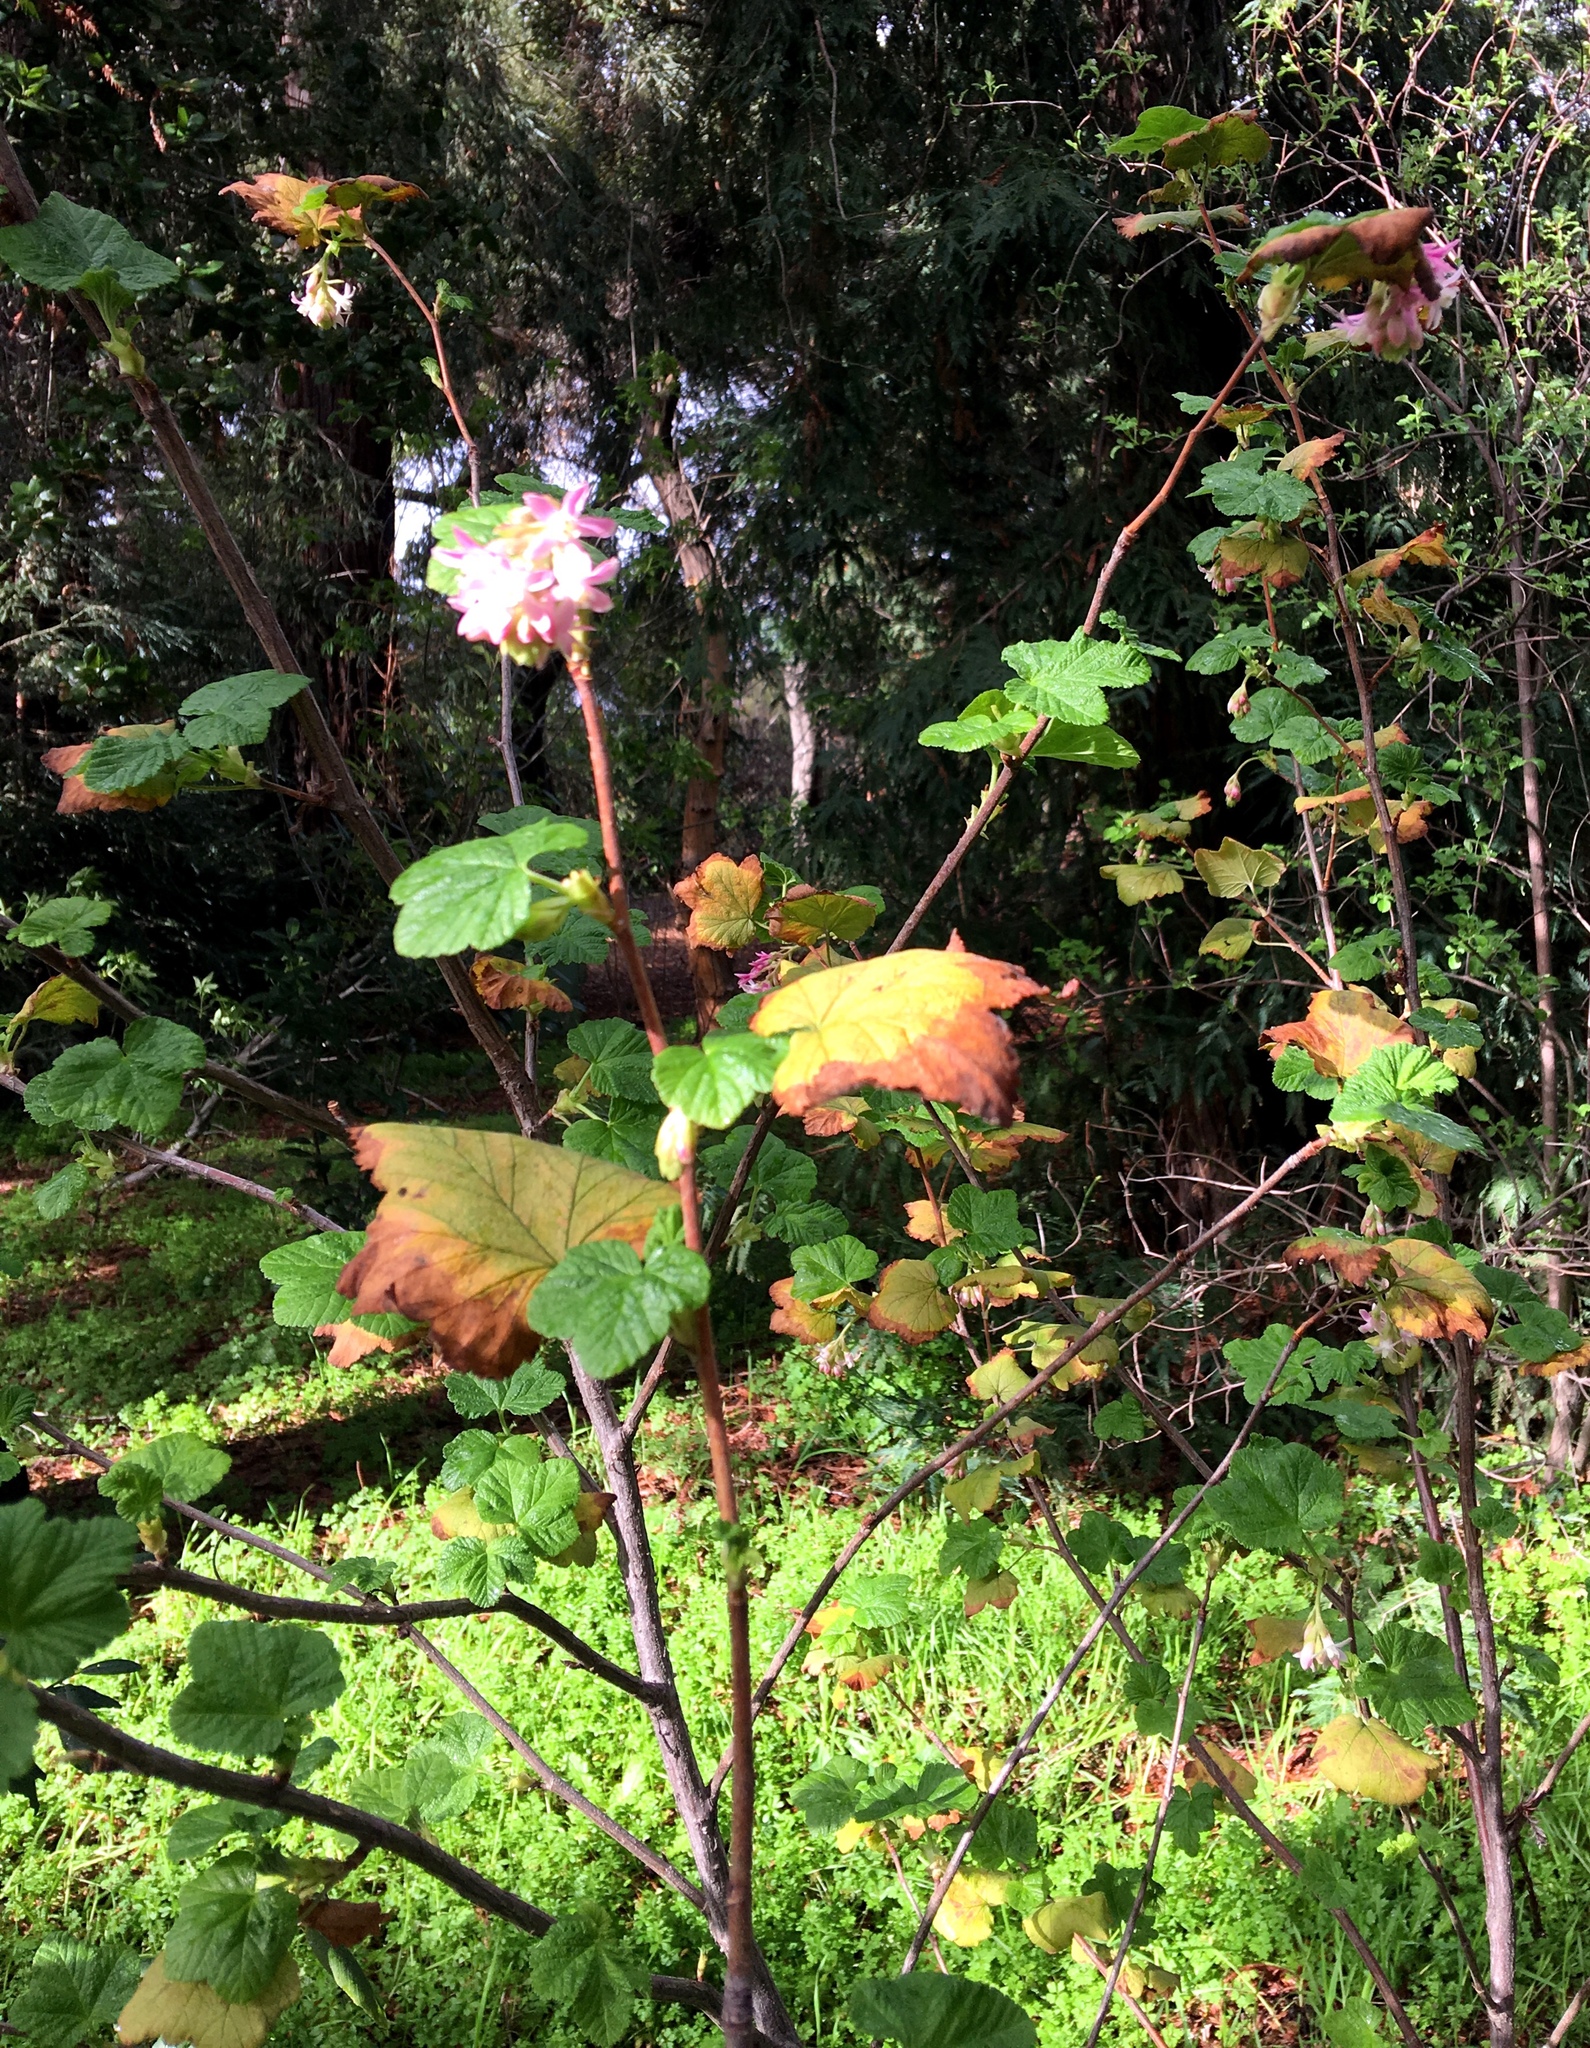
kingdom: Plantae
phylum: Tracheophyta
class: Magnoliopsida
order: Saxifragales
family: Grossulariaceae
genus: Ribes
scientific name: Ribes sanguineum
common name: Flowering currant
